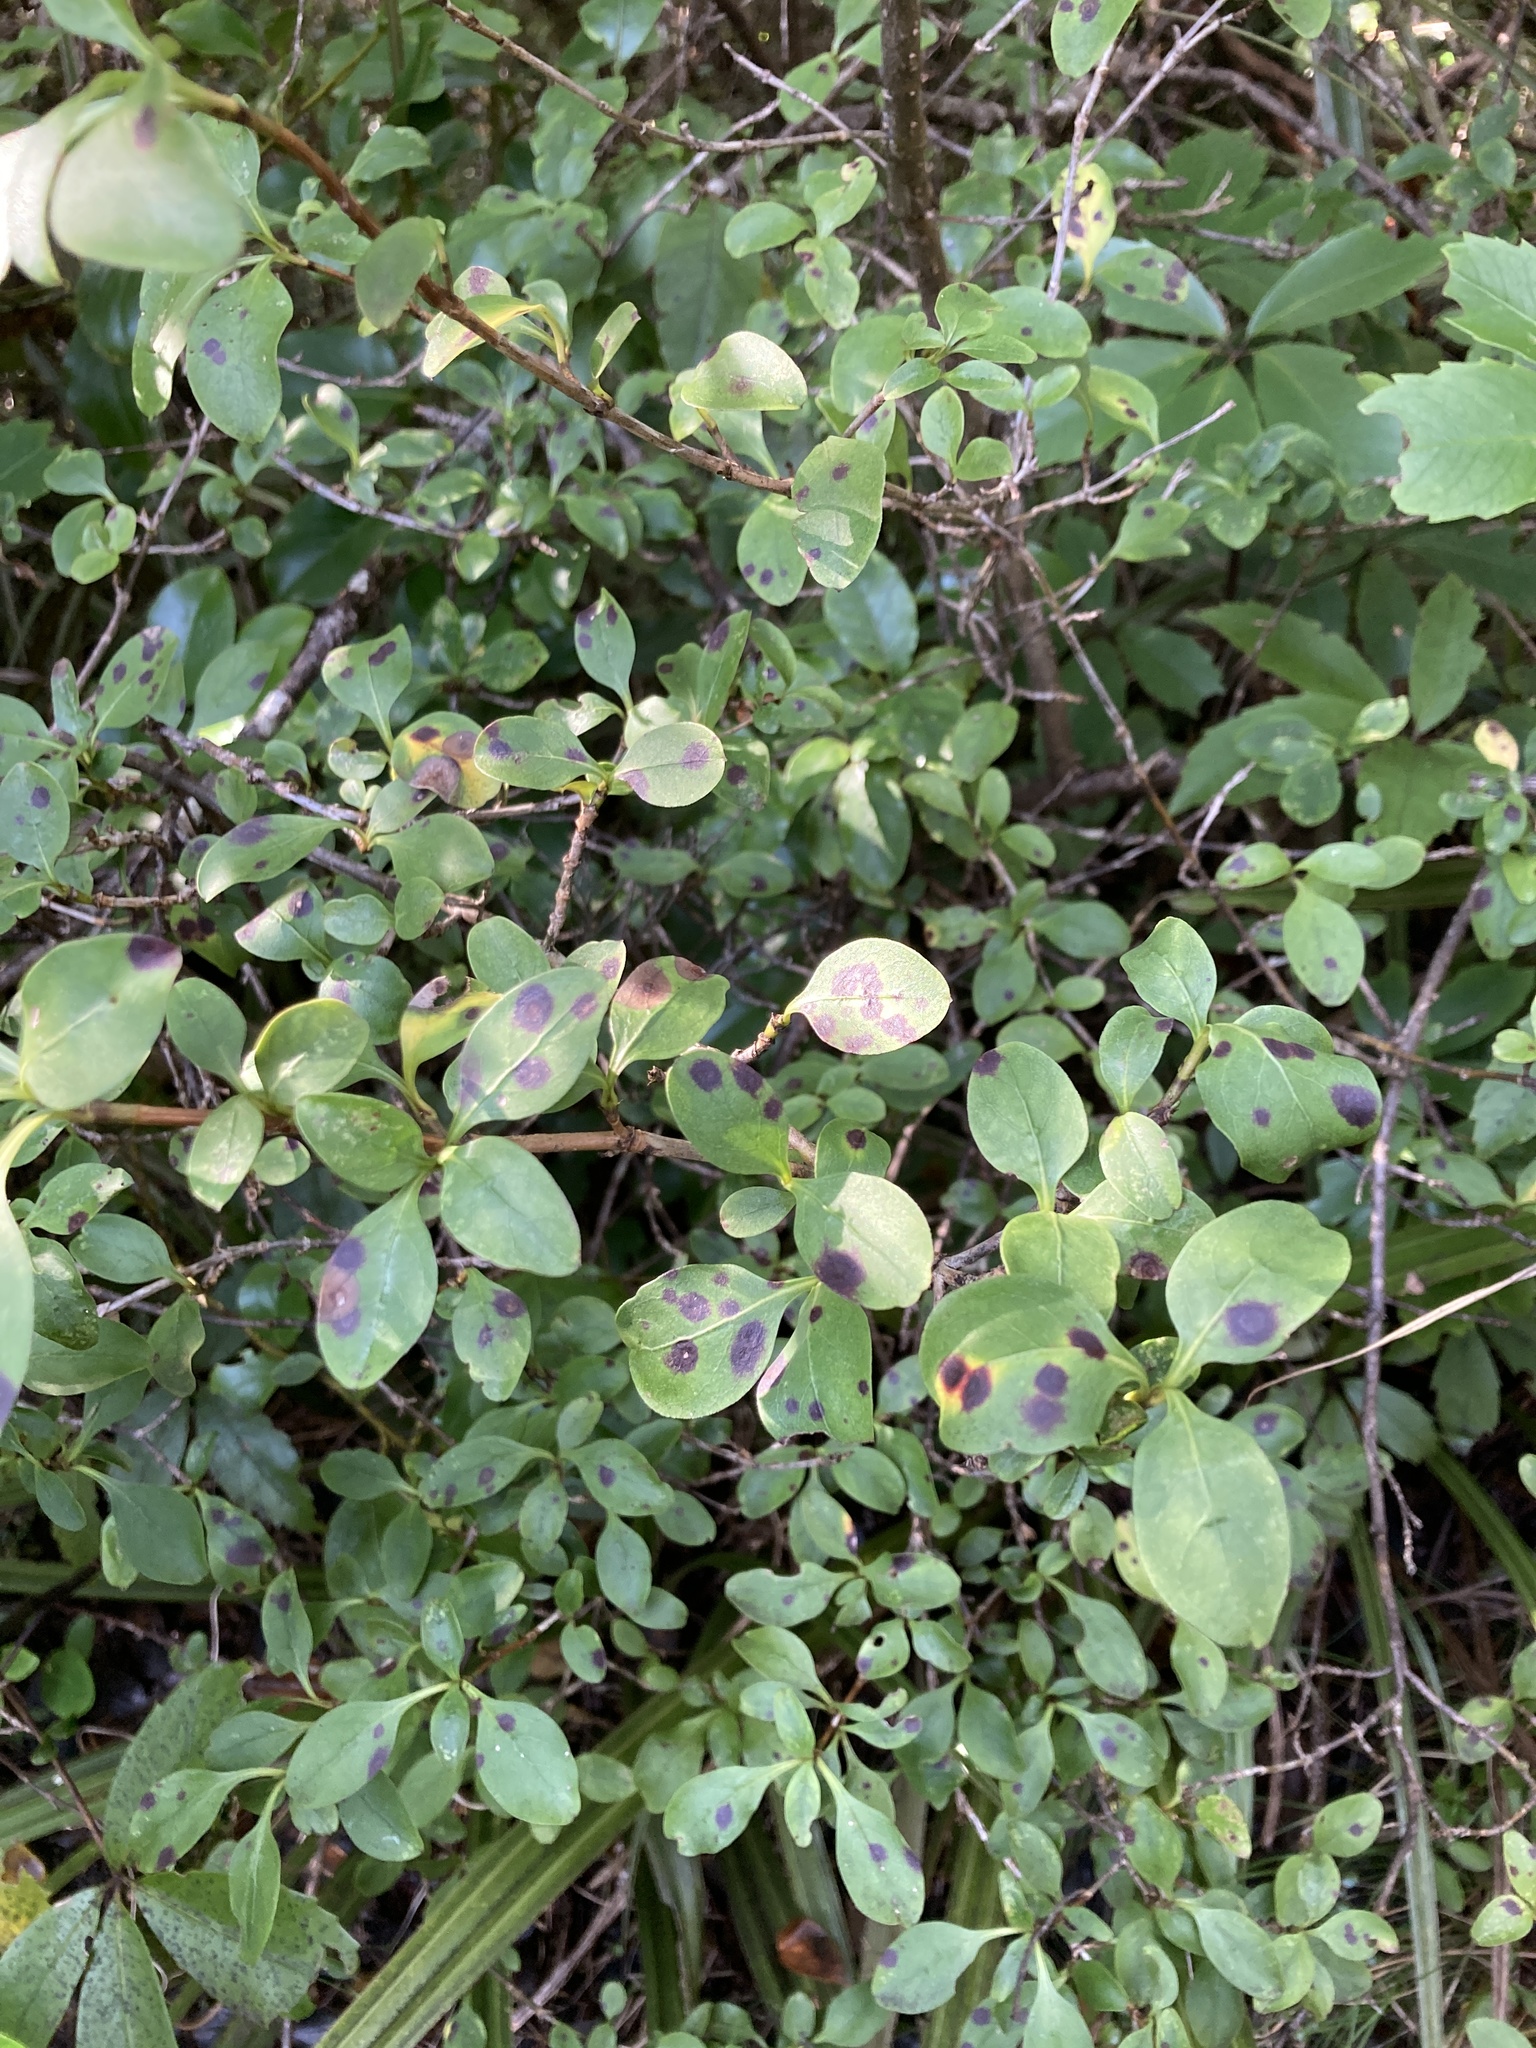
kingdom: Plantae
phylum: Tracheophyta
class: Magnoliopsida
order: Gentianales
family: Rubiaceae
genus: Coprosma
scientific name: Coprosma foetidissima
